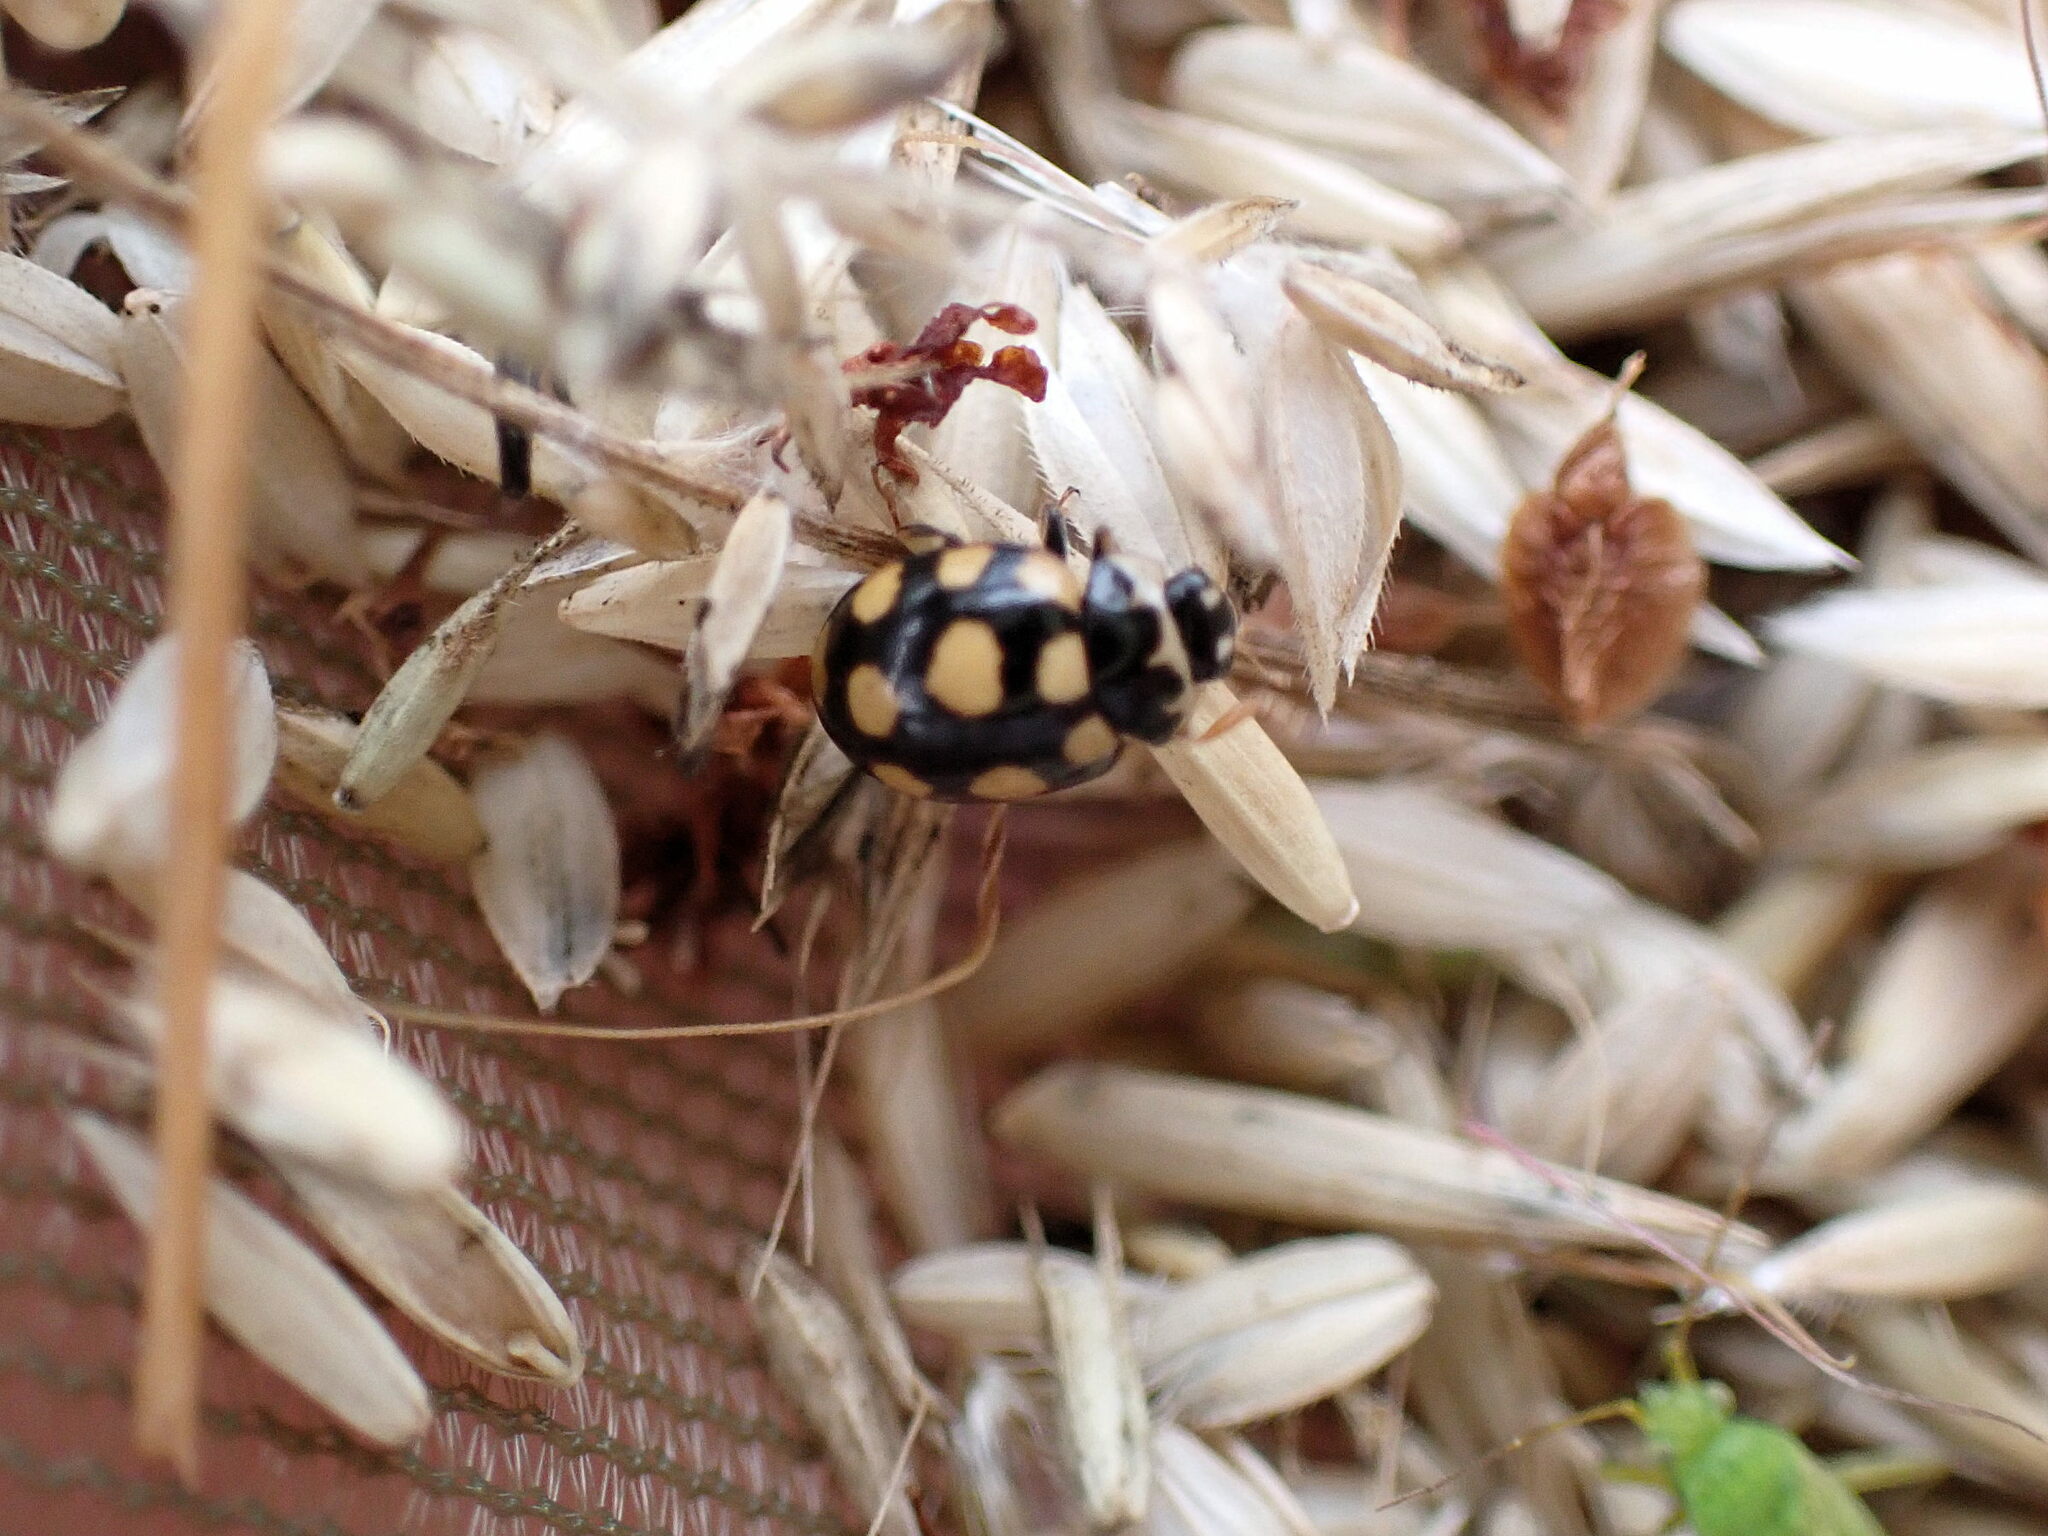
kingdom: Animalia
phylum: Arthropoda
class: Insecta
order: Coleoptera
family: Coccinellidae
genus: Coccinula
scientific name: Coccinula quatuordecimpustulata
